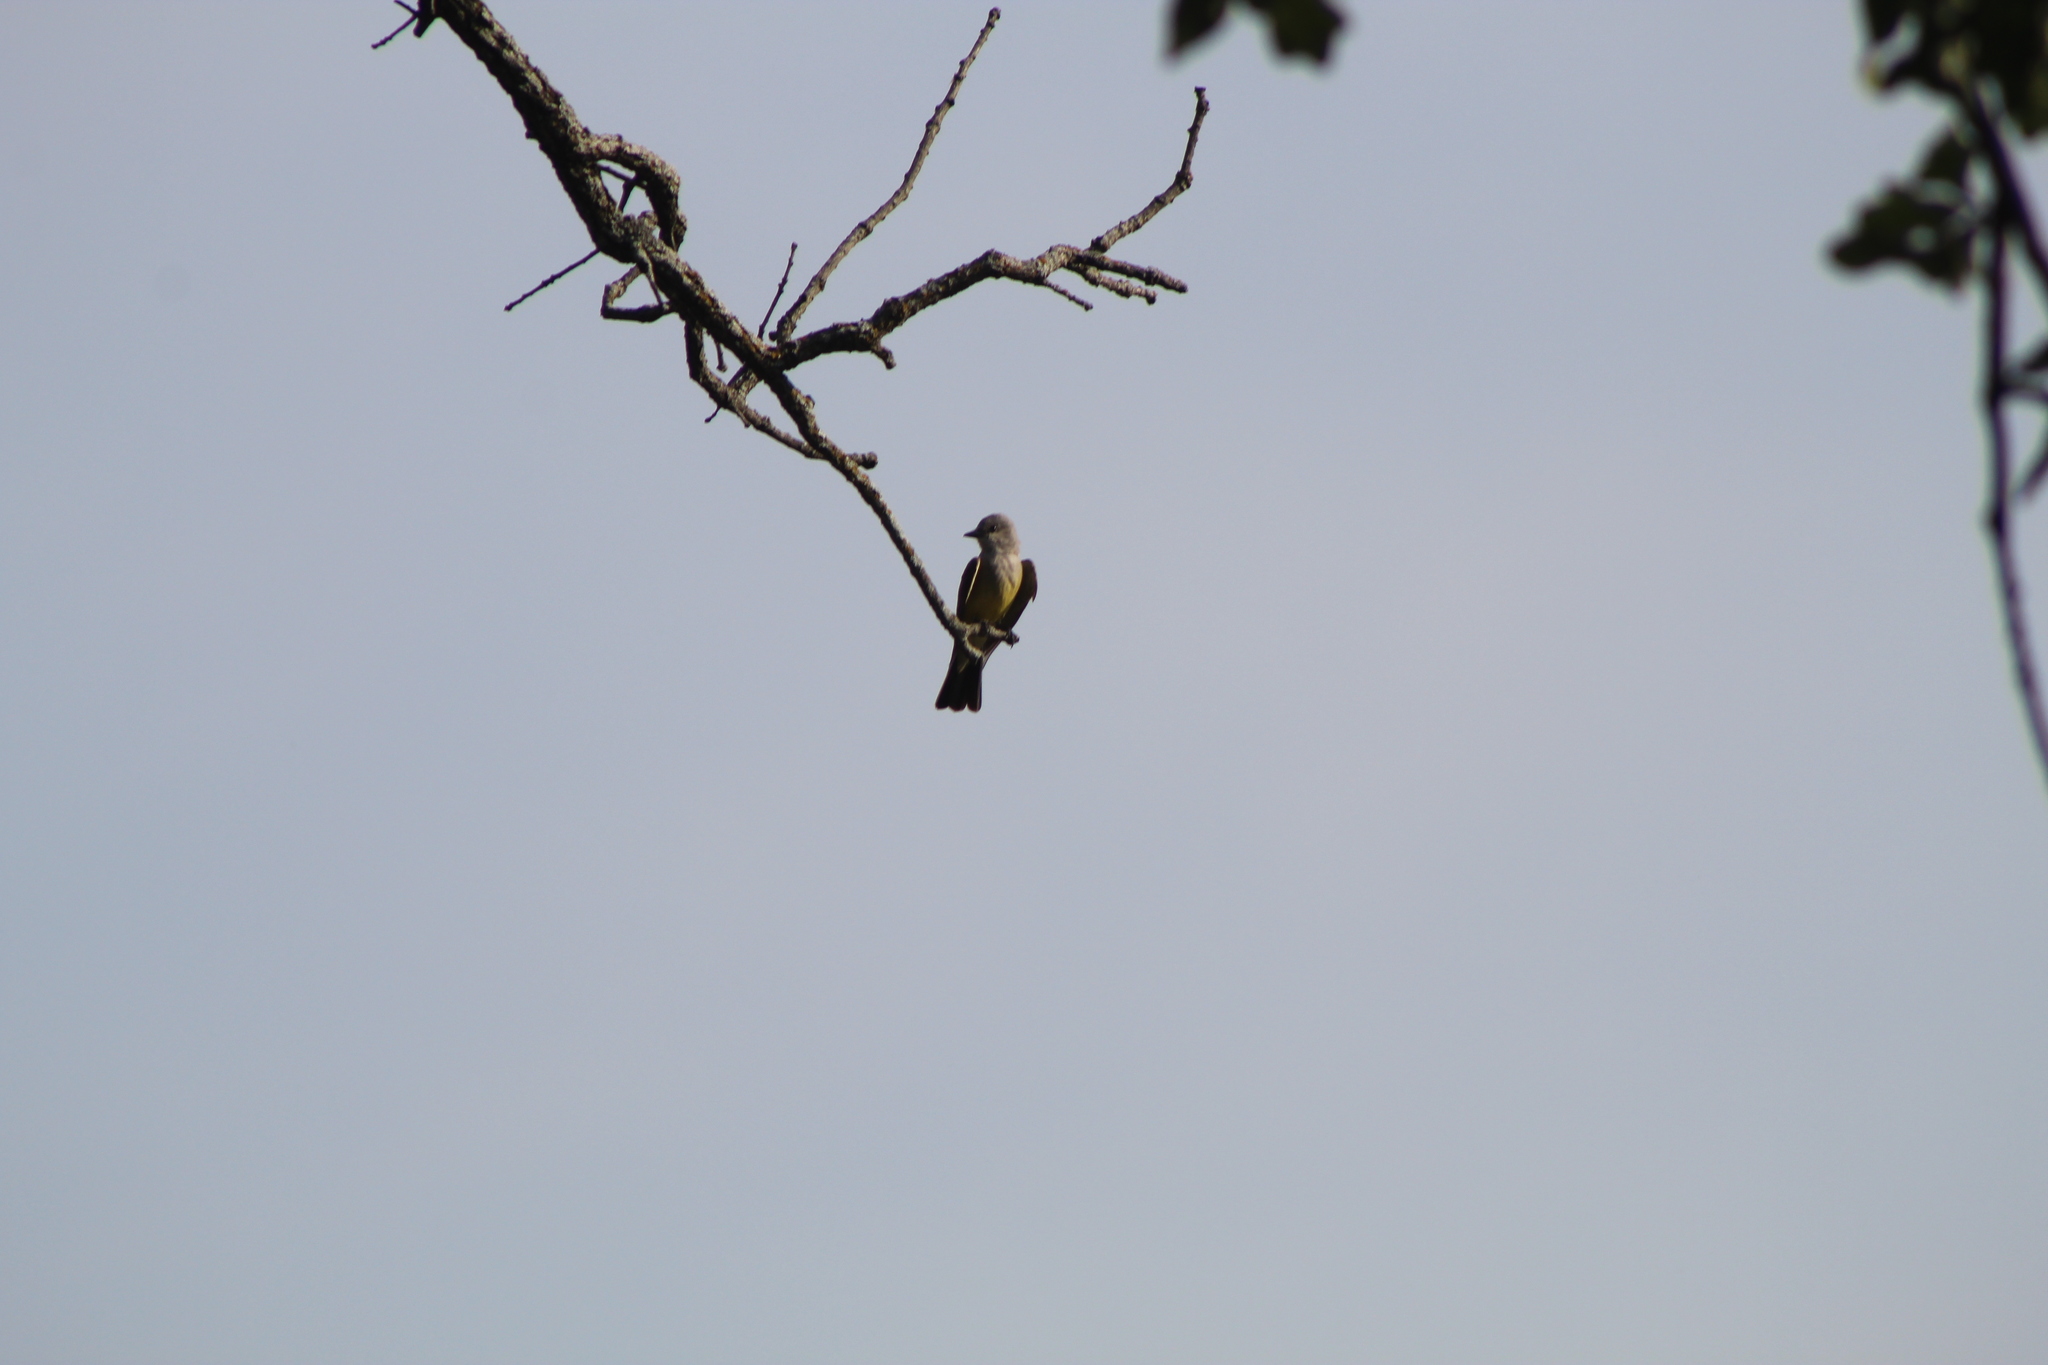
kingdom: Animalia
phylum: Chordata
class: Aves
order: Passeriformes
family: Tyrannidae
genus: Tyrannus
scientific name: Tyrannus verticalis
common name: Western kingbird
